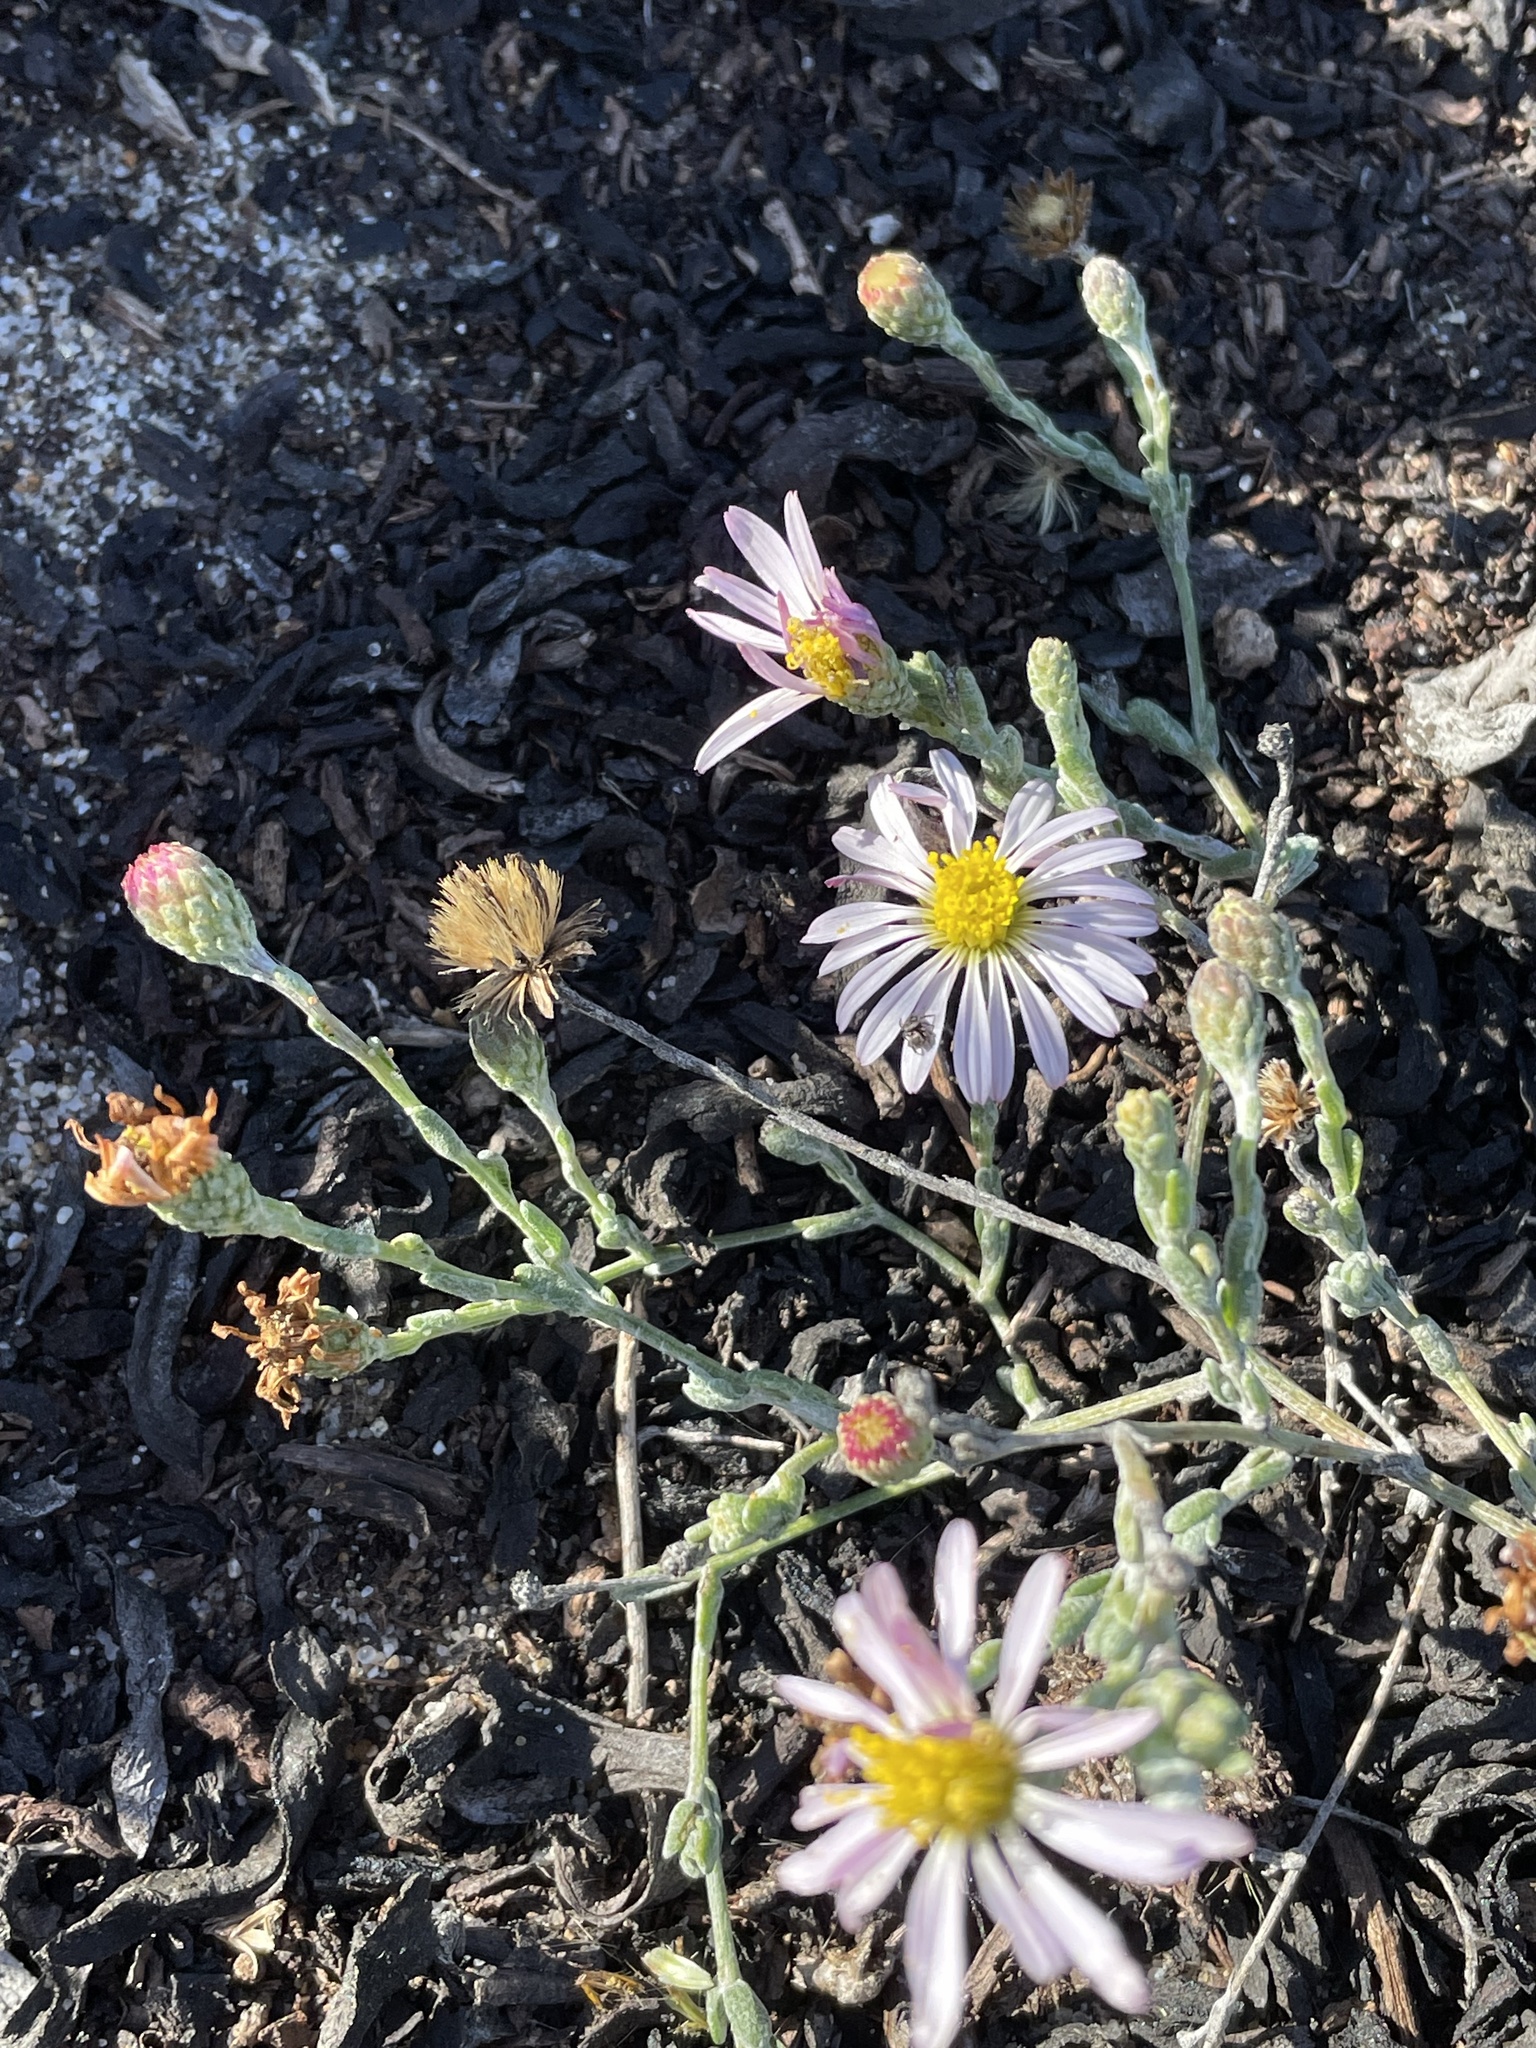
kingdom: Plantae
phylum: Tracheophyta
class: Magnoliopsida
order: Asterales
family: Asteraceae
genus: Corethrogyne
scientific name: Corethrogyne filaginifolia
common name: Sand-aster
